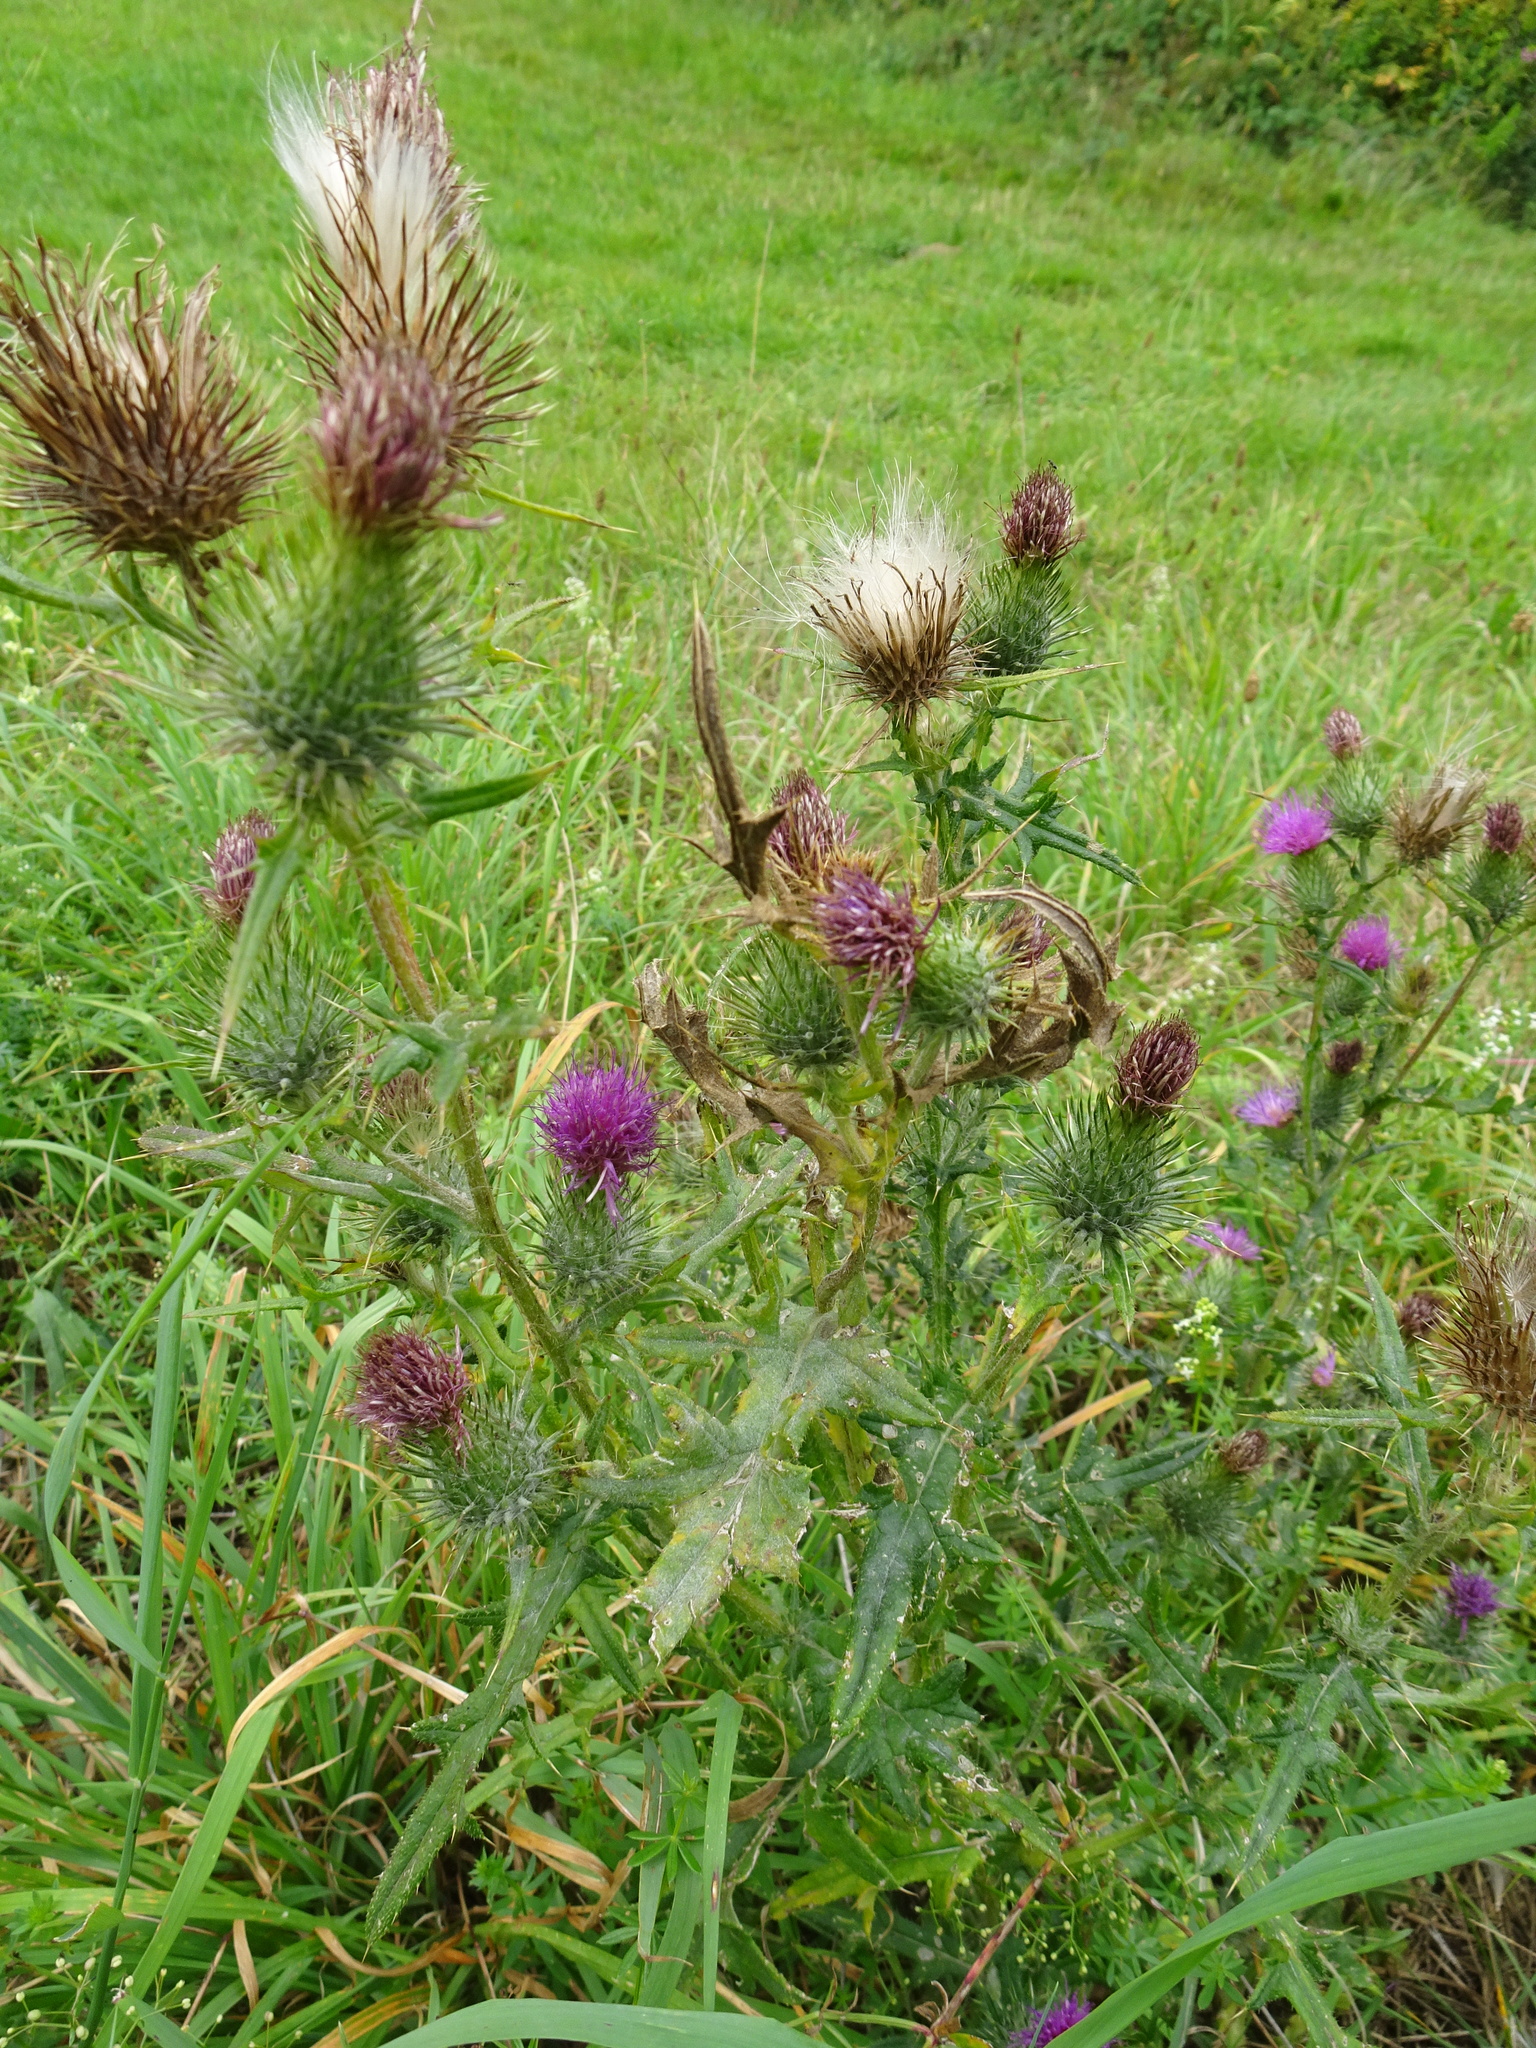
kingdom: Plantae
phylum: Tracheophyta
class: Magnoliopsida
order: Asterales
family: Asteraceae
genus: Cirsium
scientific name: Cirsium vulgare
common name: Bull thistle
